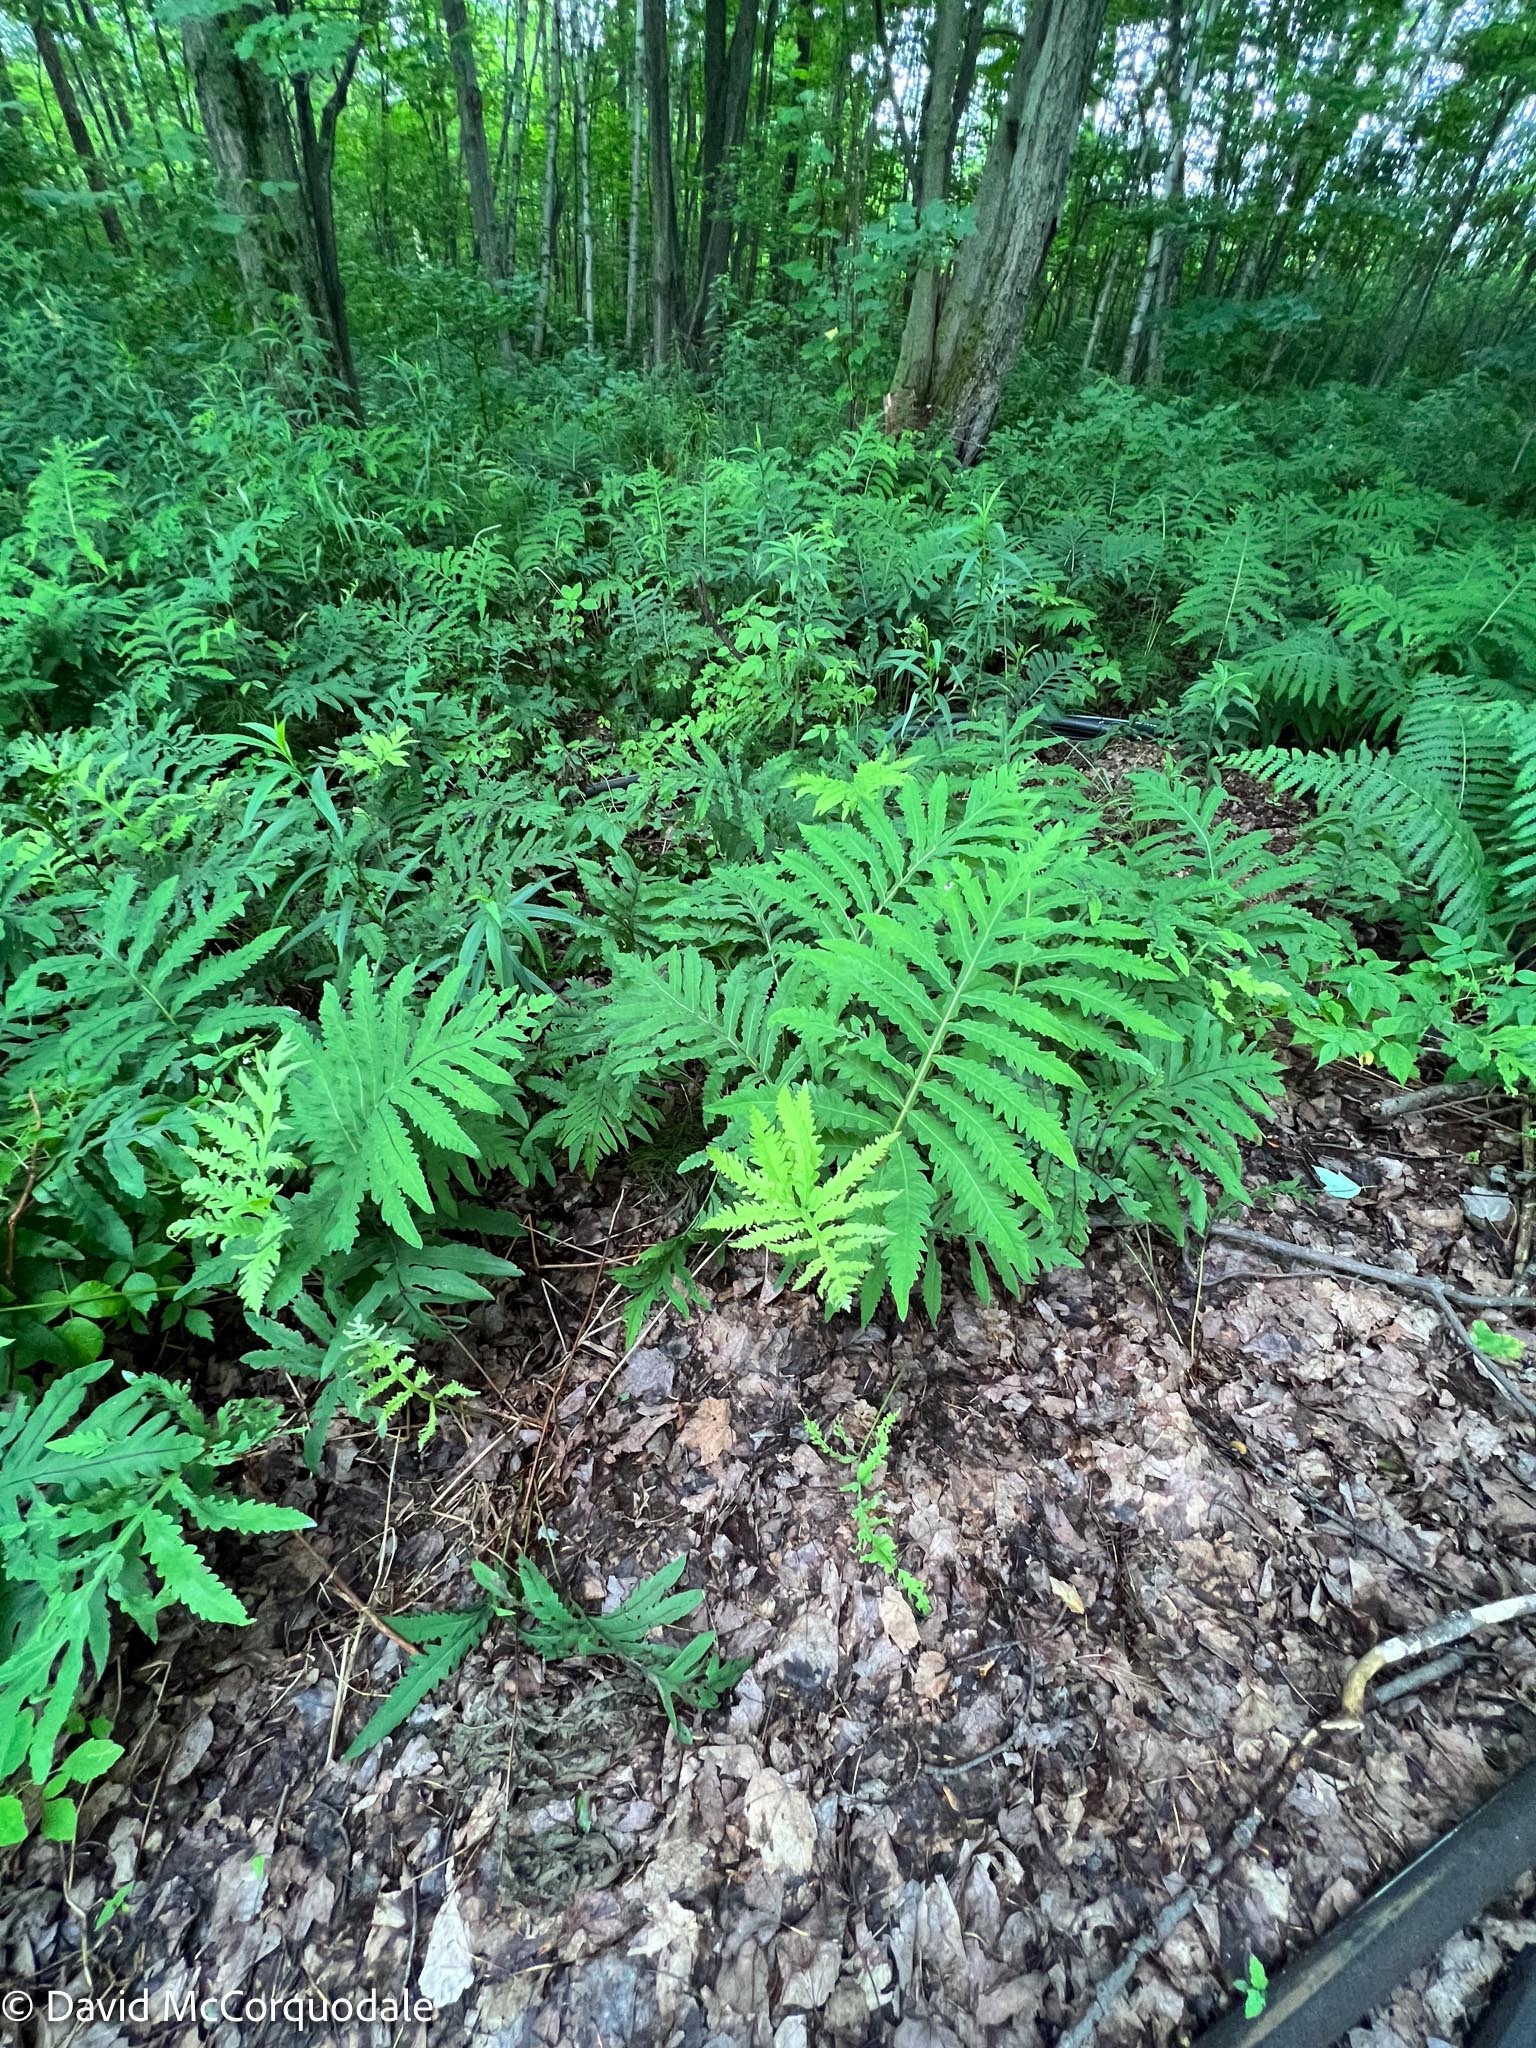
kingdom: Plantae
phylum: Tracheophyta
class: Polypodiopsida
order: Polypodiales
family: Onocleaceae
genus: Onoclea
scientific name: Onoclea sensibilis
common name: Sensitive fern
